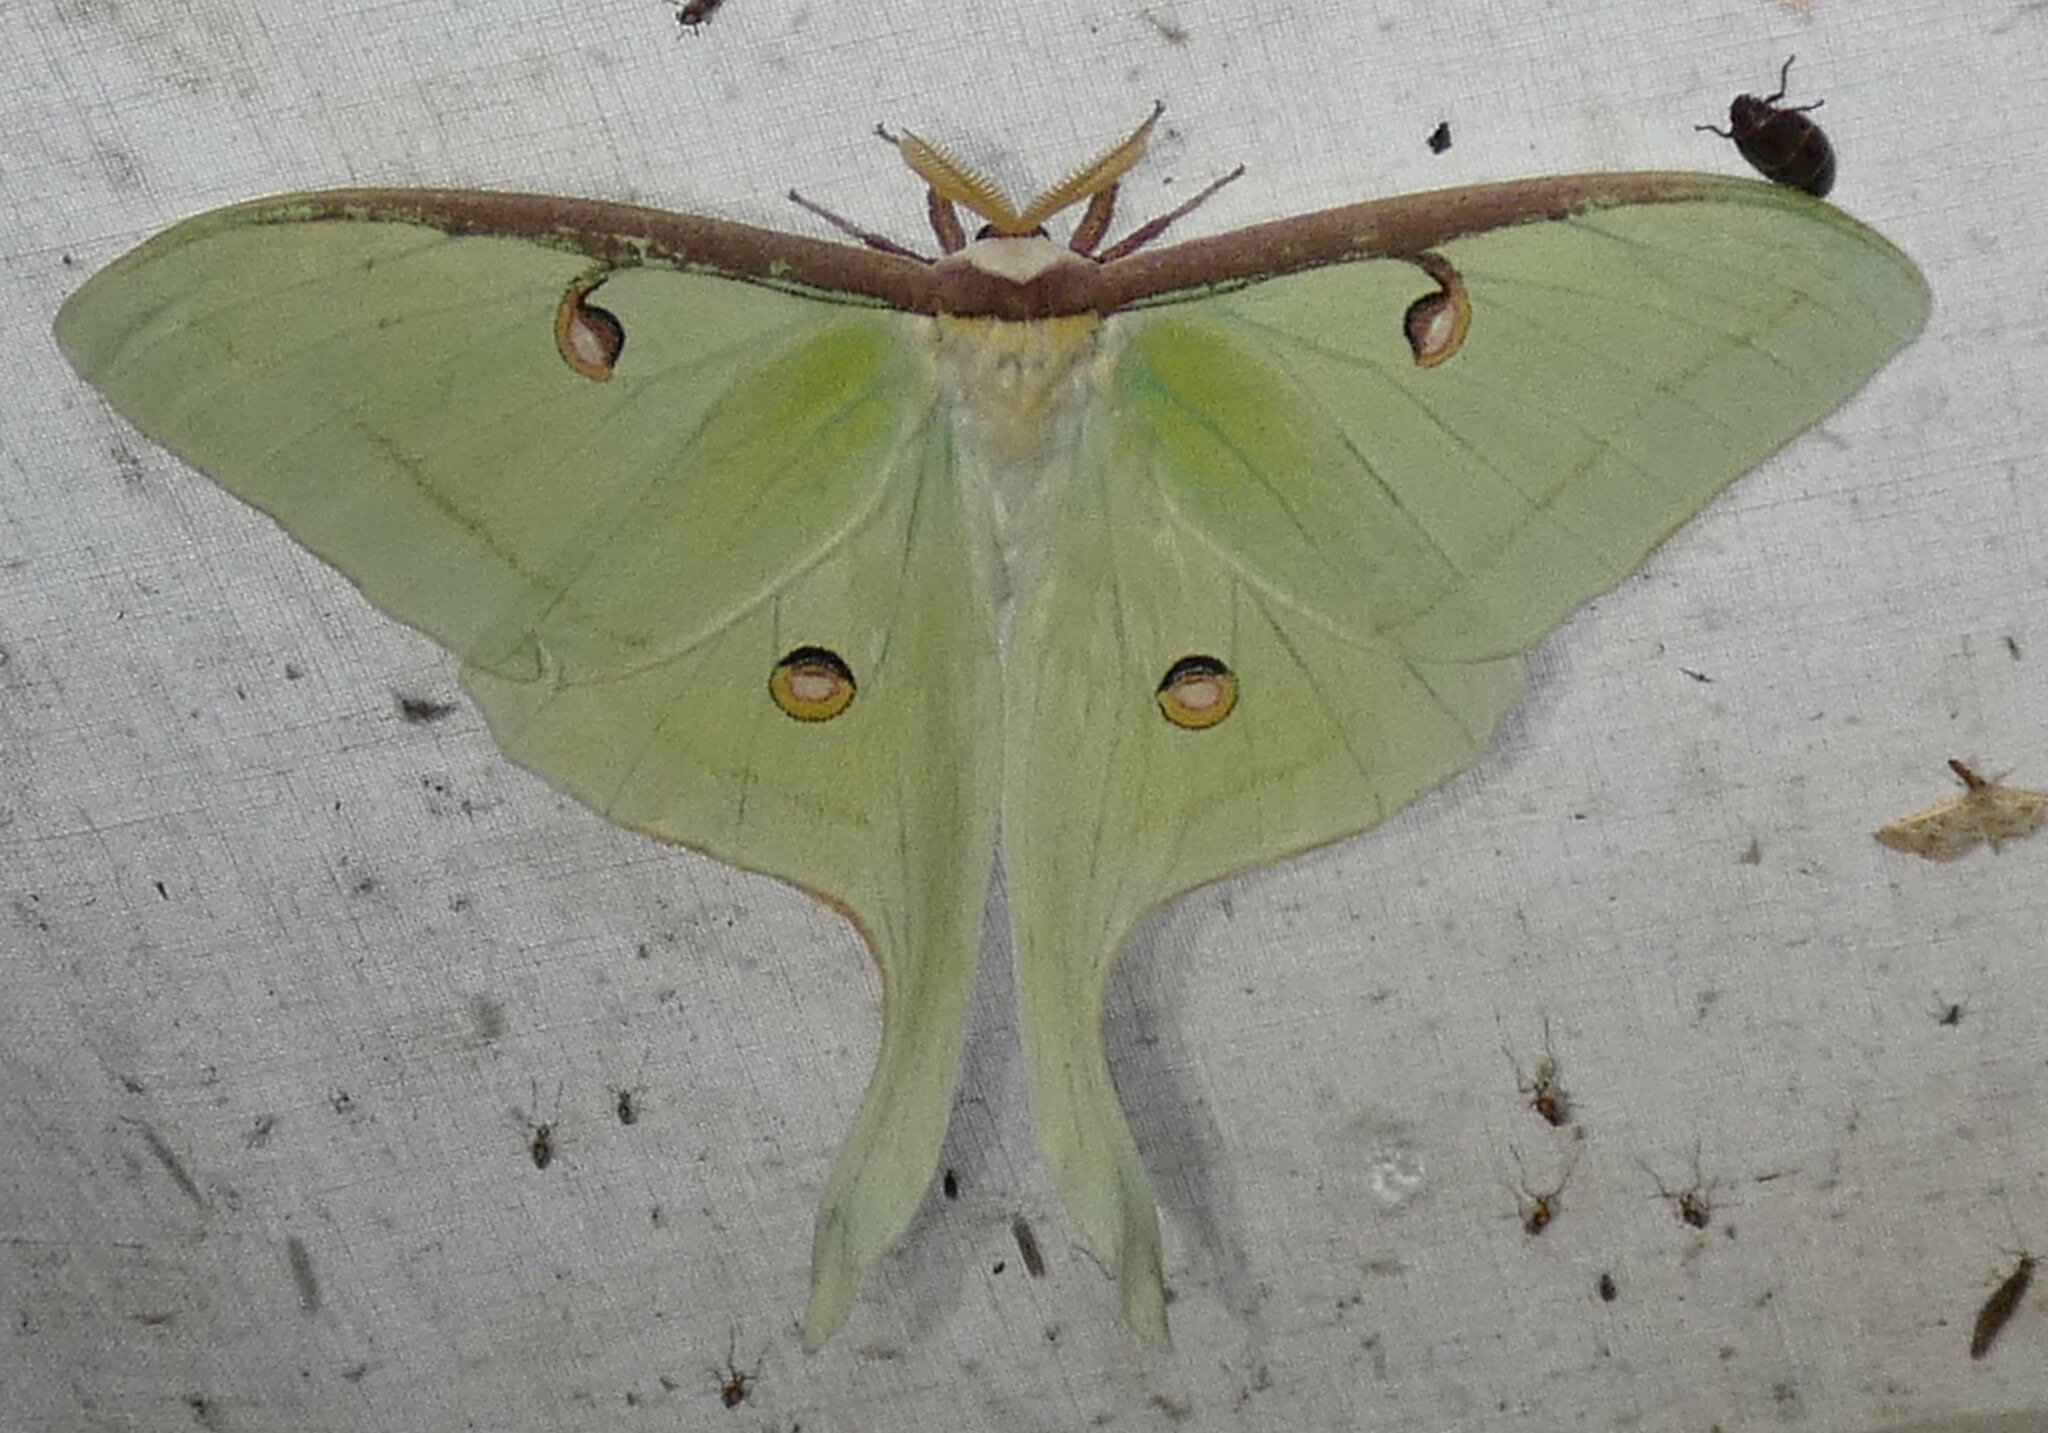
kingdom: Animalia
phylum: Arthropoda
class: Insecta
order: Lepidoptera
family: Saturniidae
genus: Actias
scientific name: Actias luna
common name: Luna moth
